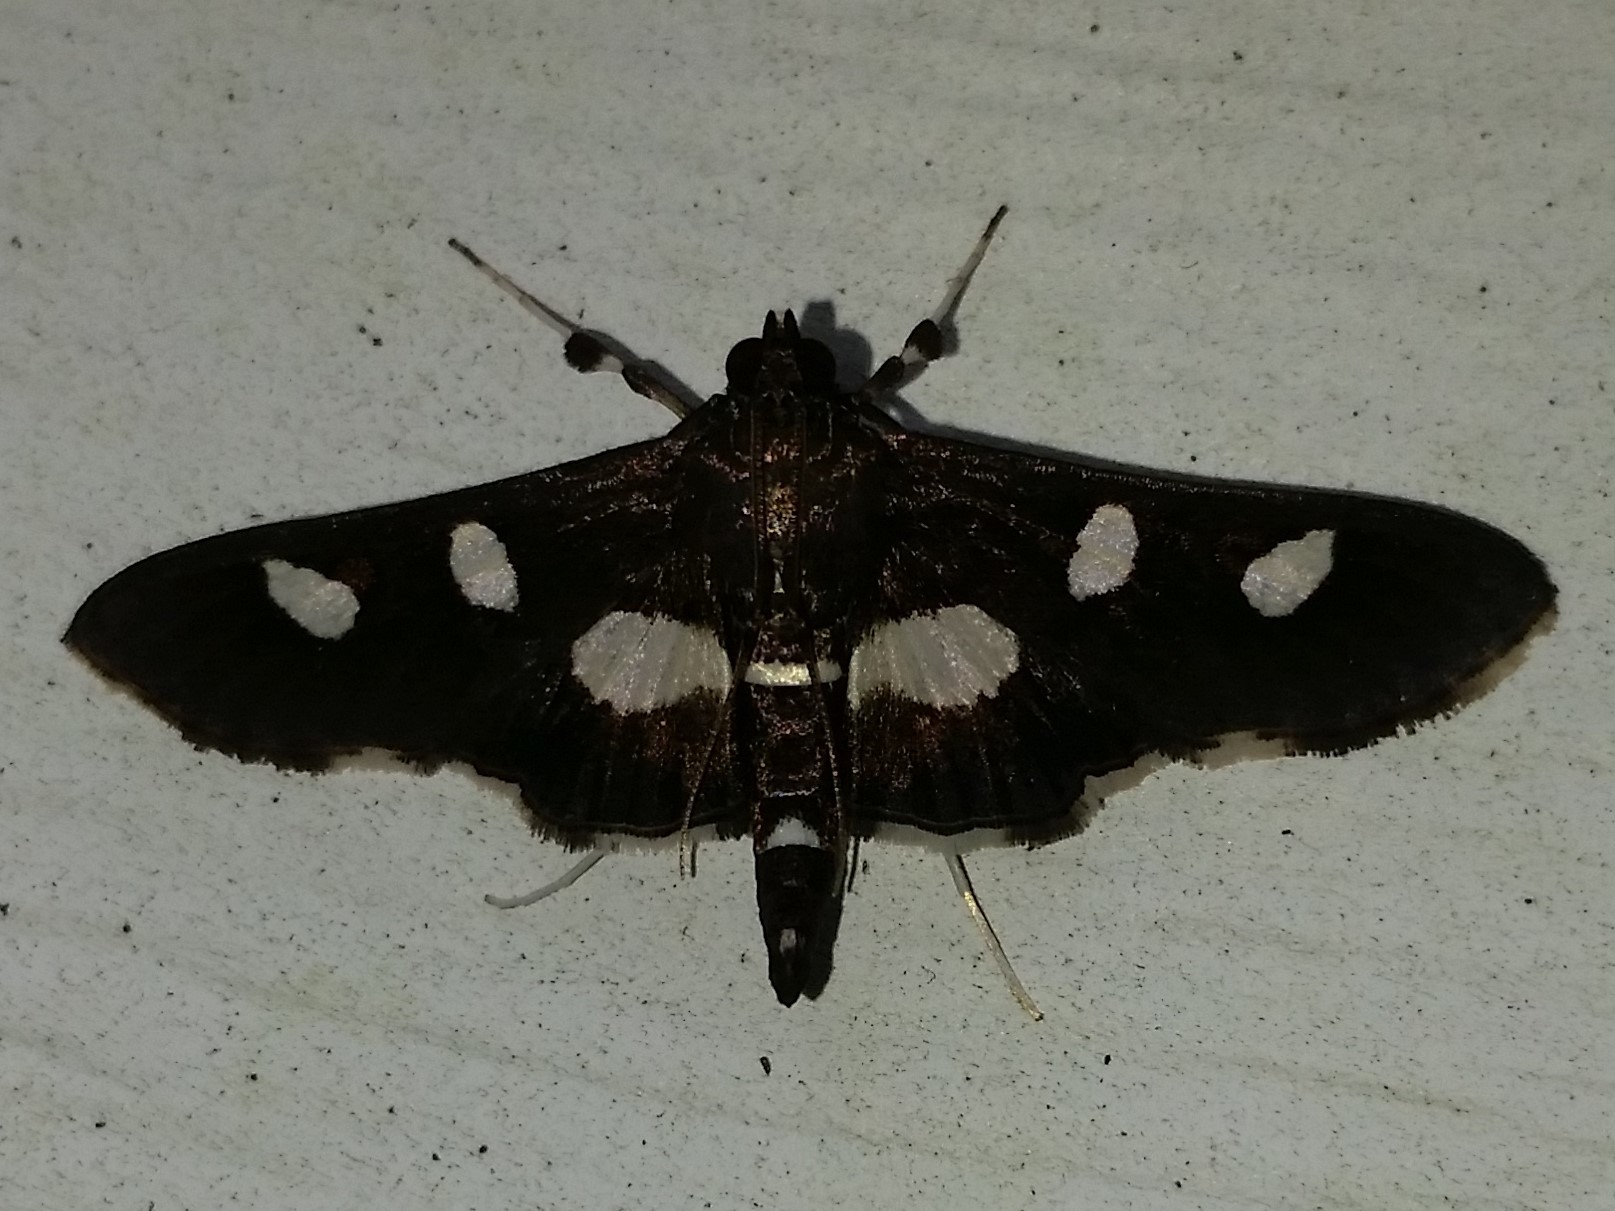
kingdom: Animalia
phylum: Arthropoda
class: Insecta
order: Lepidoptera
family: Crambidae
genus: Desmia
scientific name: Desmia
